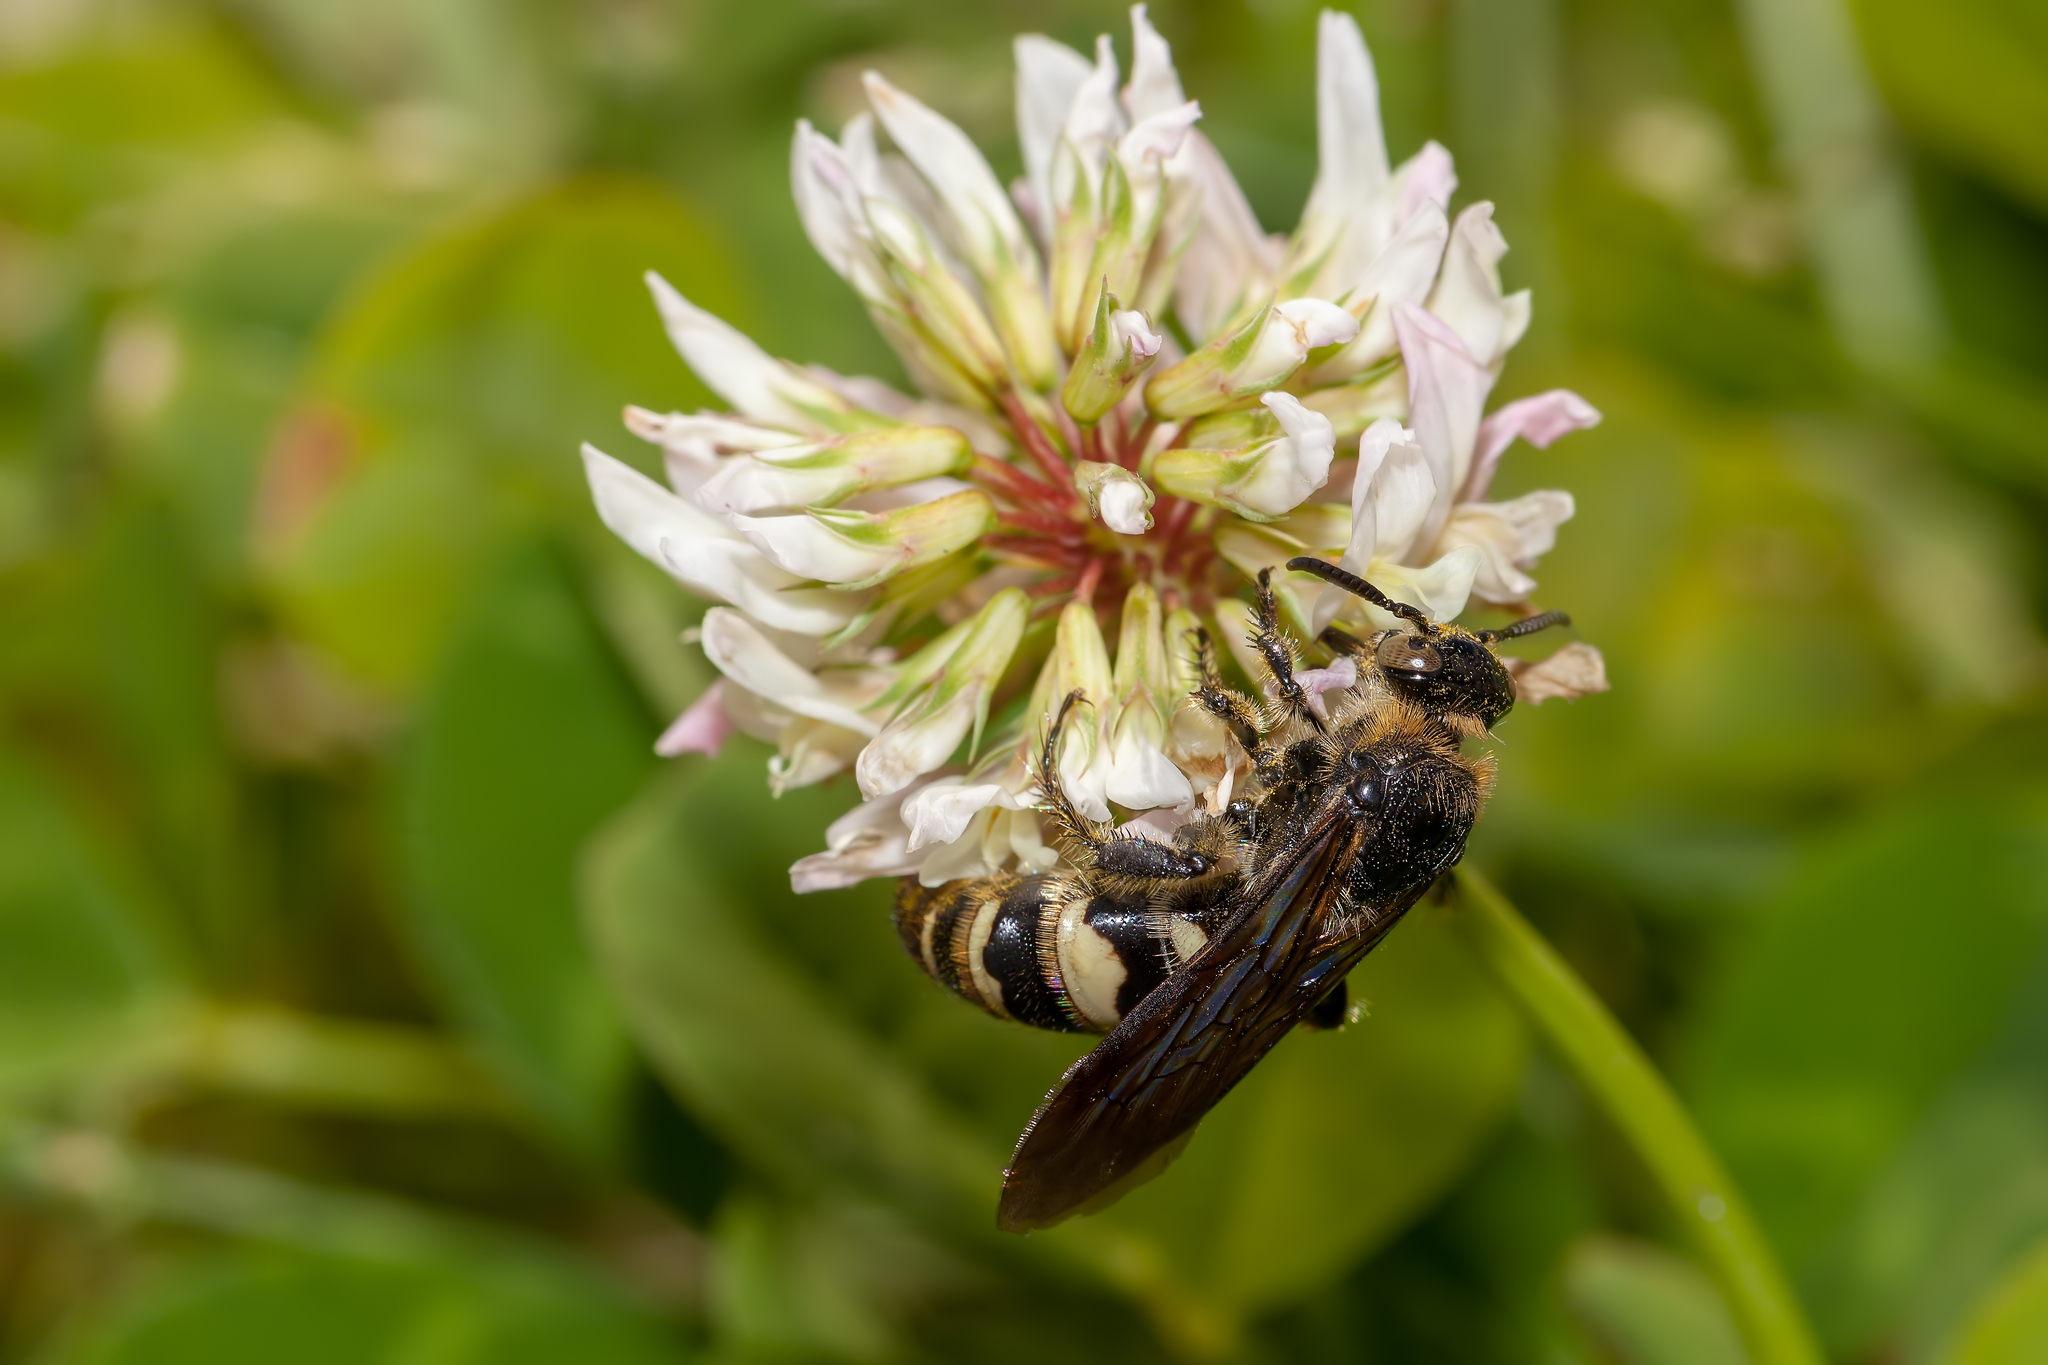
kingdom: Animalia
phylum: Arthropoda
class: Insecta
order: Hymenoptera
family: Scoliidae
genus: Dielis
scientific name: Dielis
